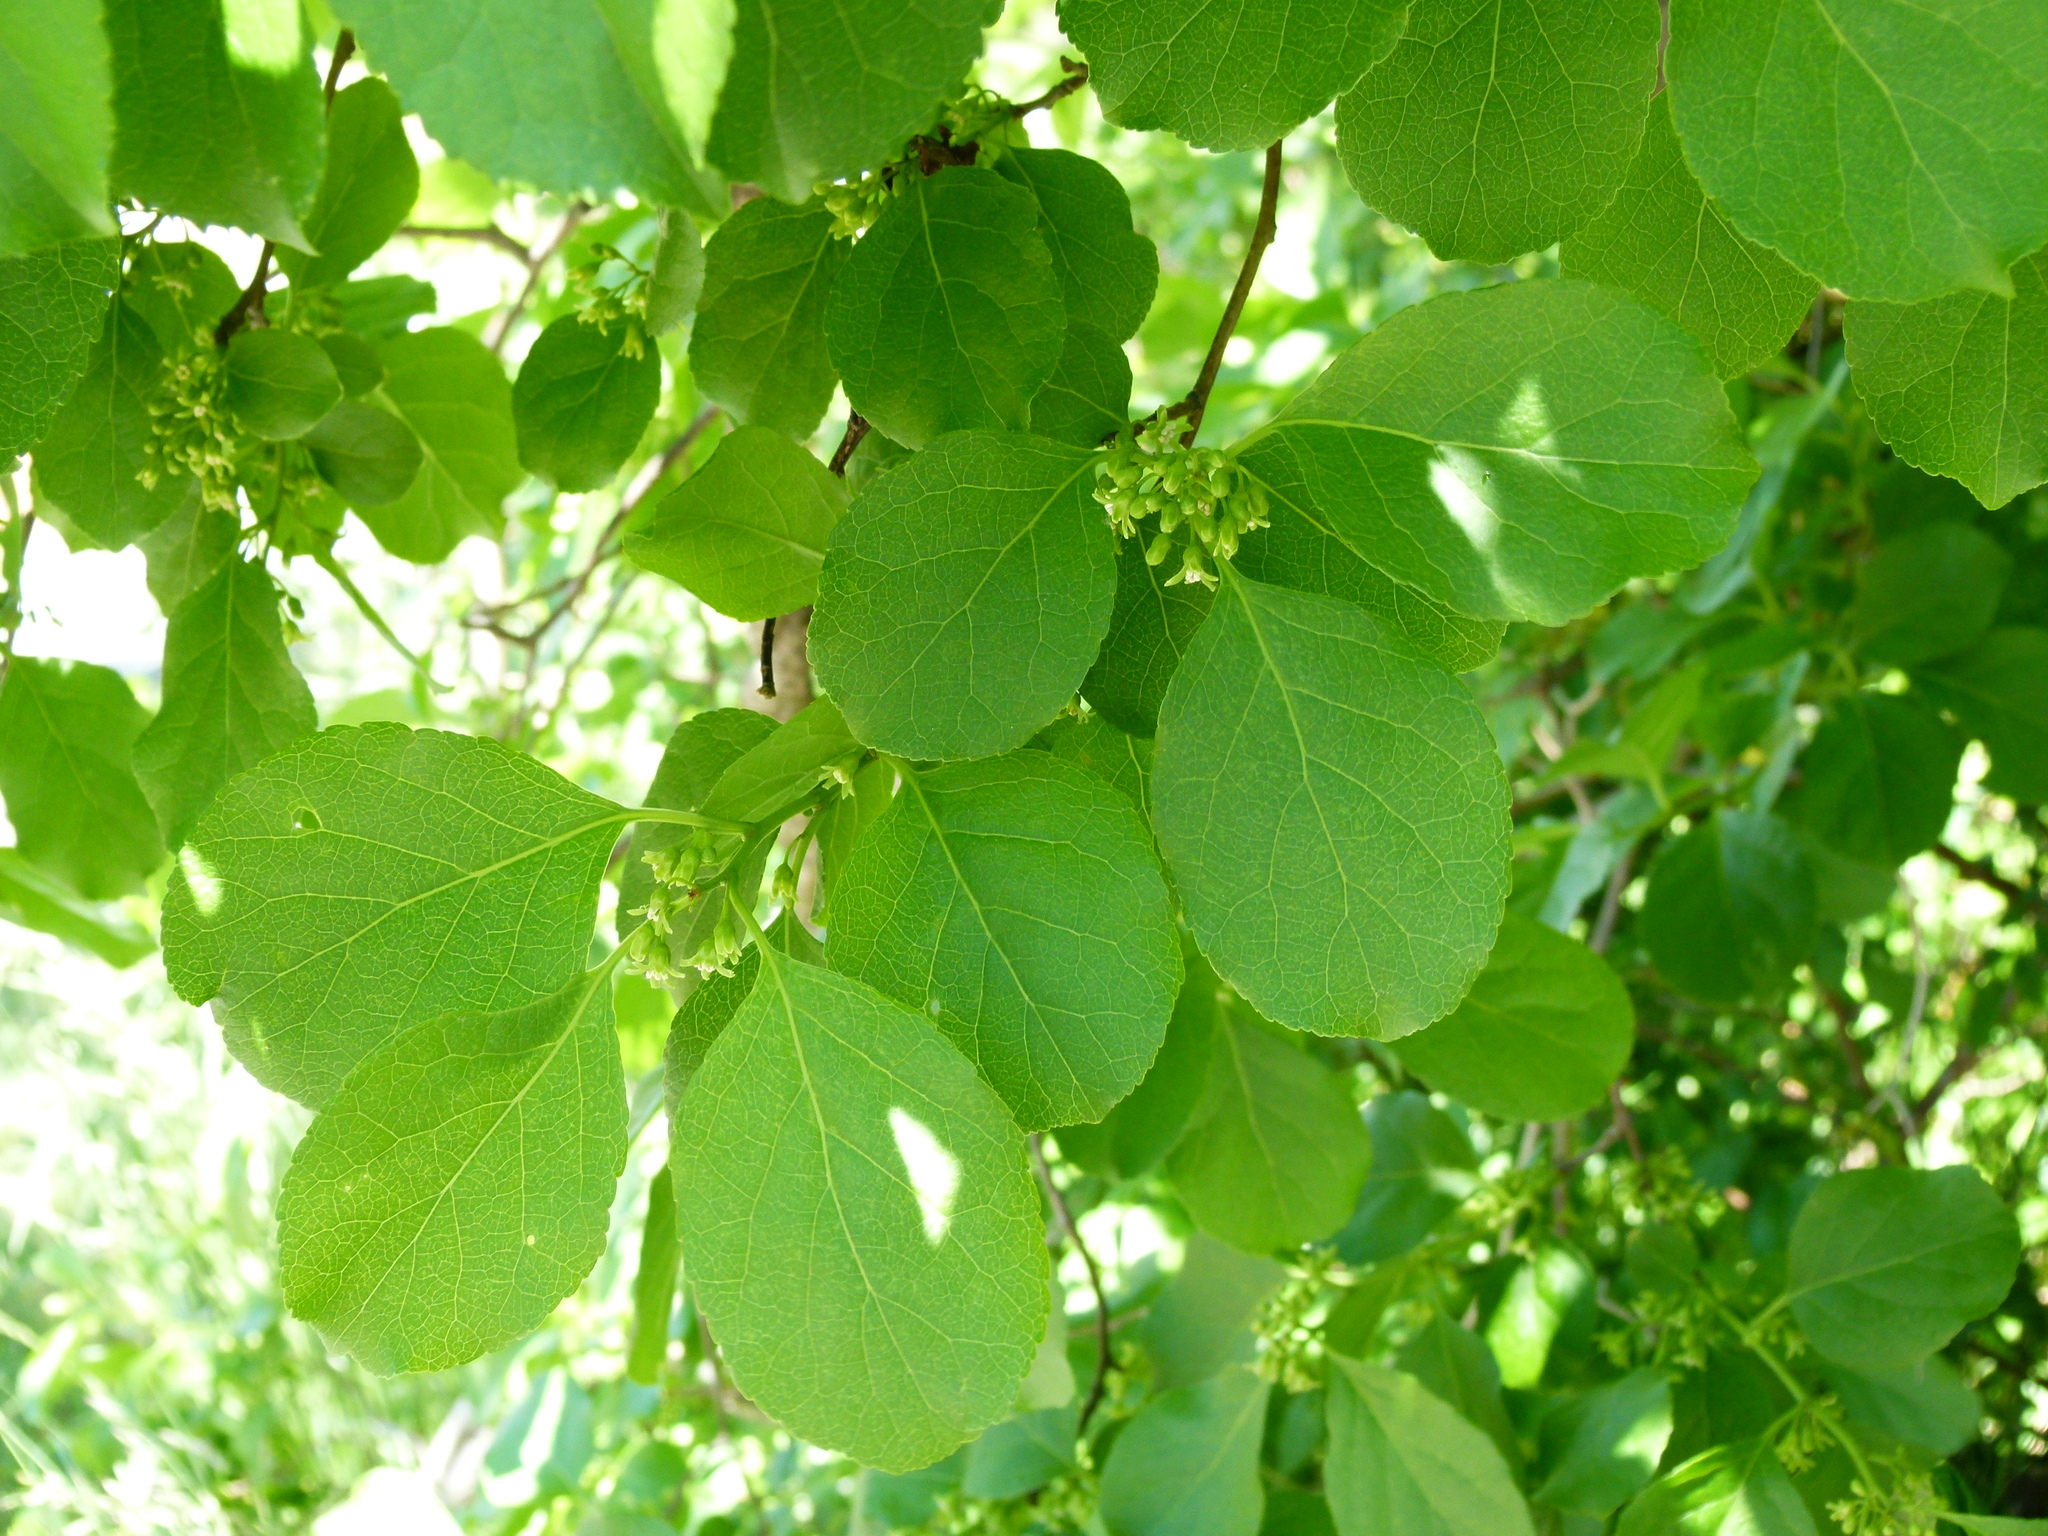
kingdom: Plantae
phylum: Tracheophyta
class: Magnoliopsida
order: Celastrales
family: Celastraceae
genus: Celastrus
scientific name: Celastrus orbiculatus
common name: Oriental bittersweet
